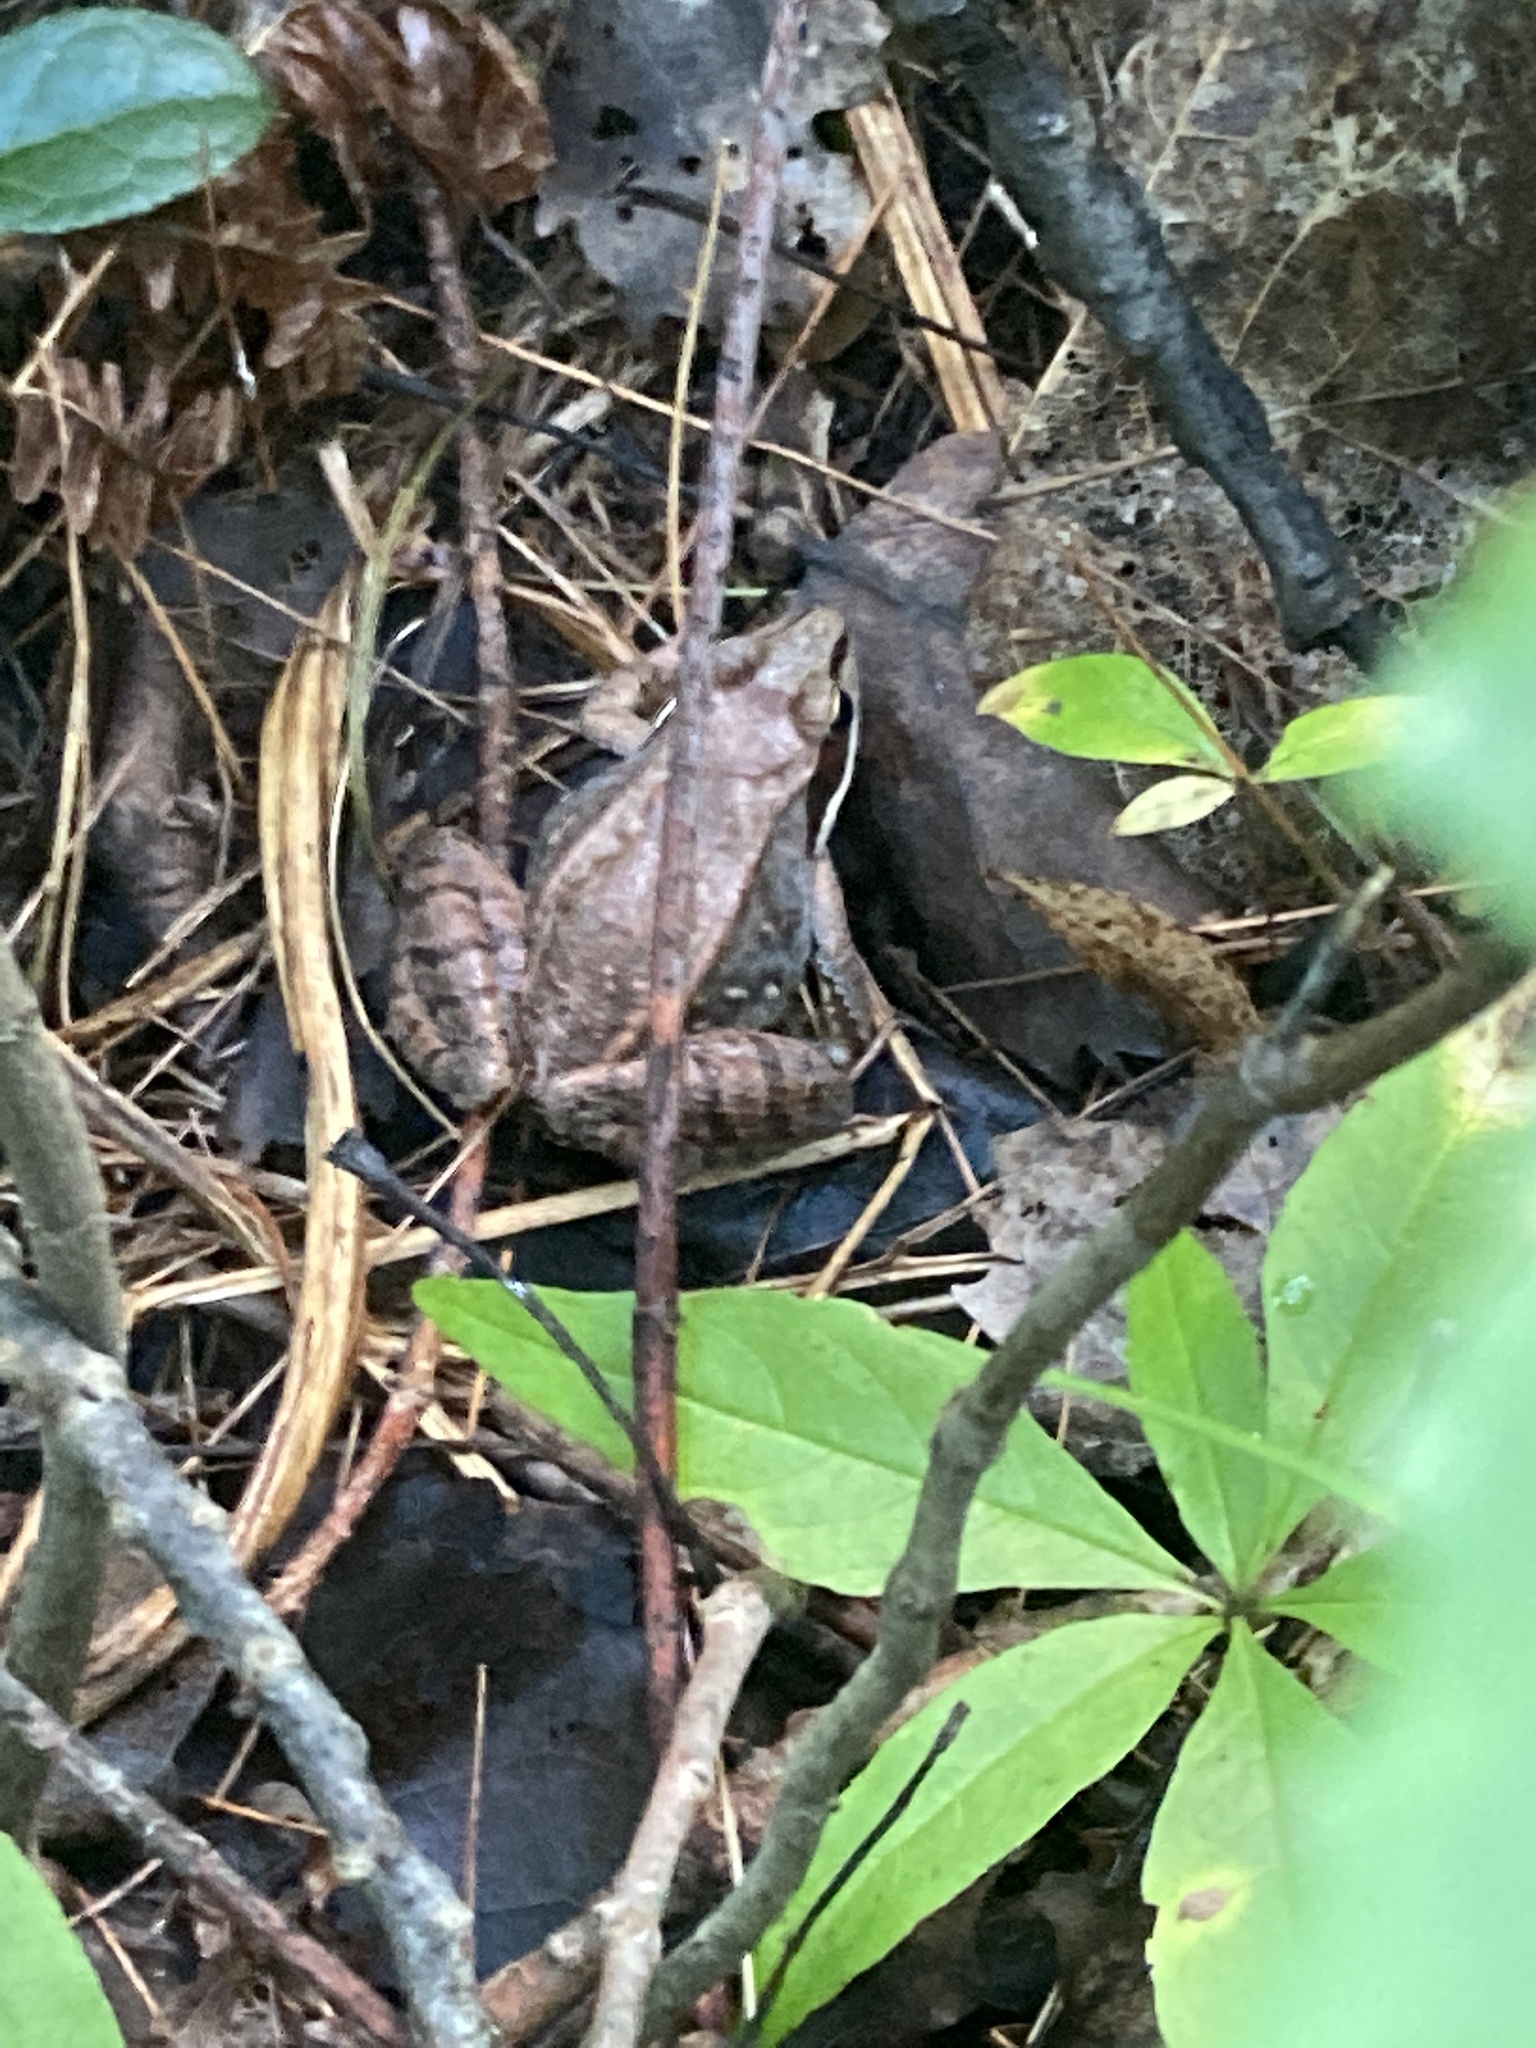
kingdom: Animalia
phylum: Chordata
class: Amphibia
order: Anura
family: Ranidae
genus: Lithobates
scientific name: Lithobates sylvaticus
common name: Wood frog
